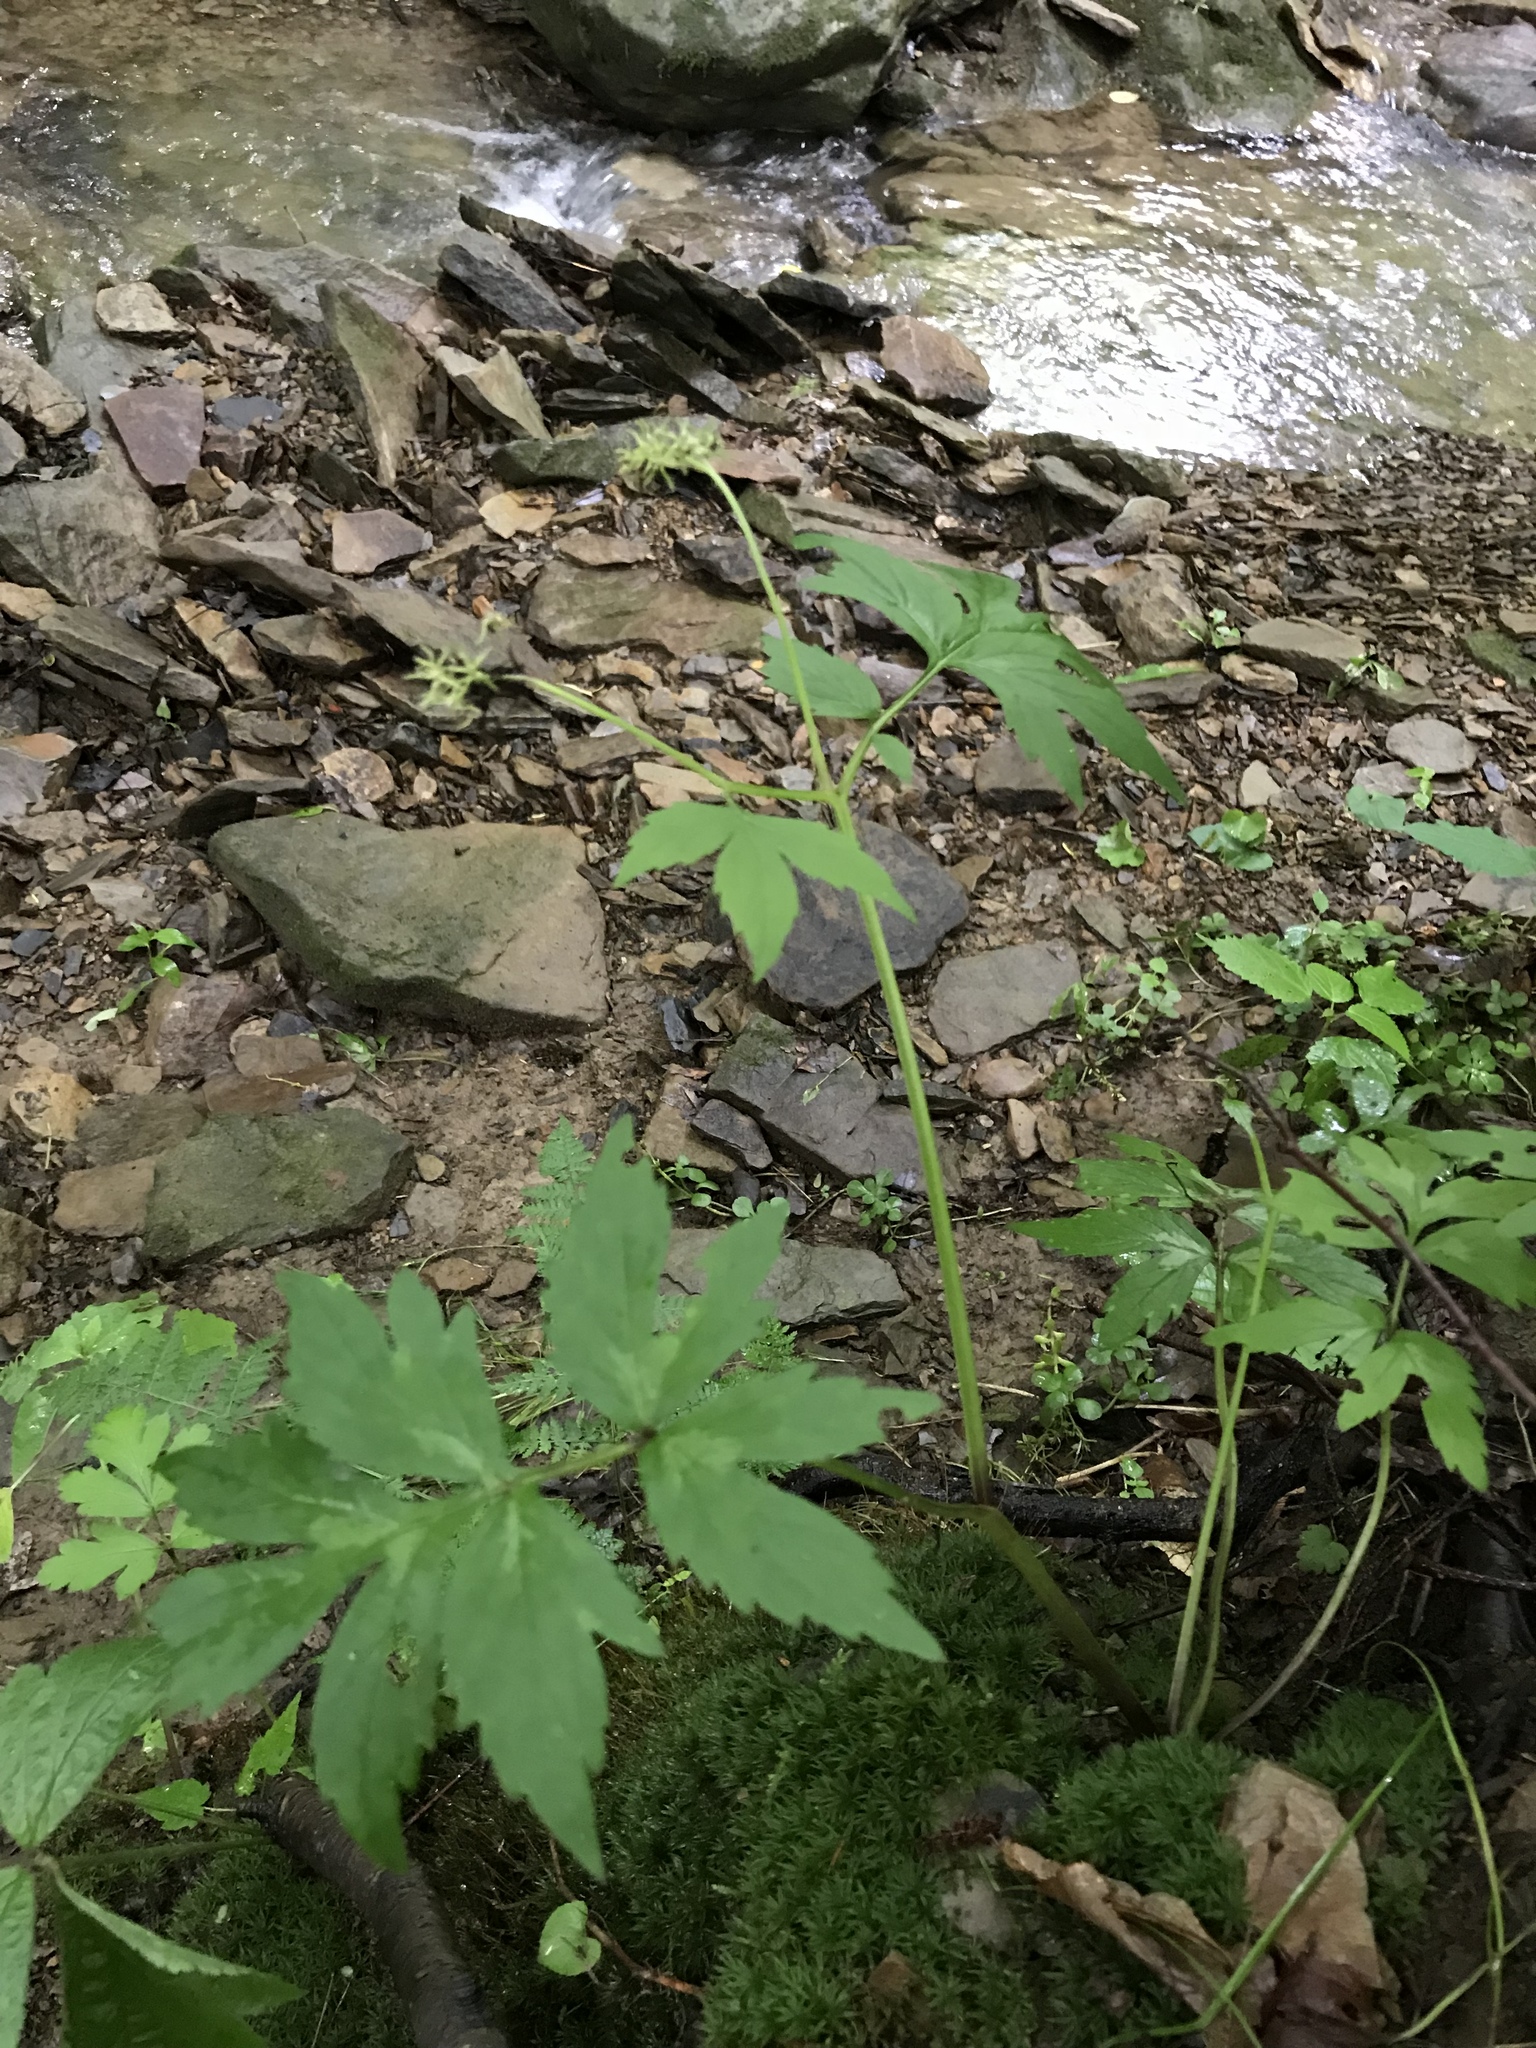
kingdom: Plantae
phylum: Tracheophyta
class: Magnoliopsida
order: Boraginales
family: Hydrophyllaceae
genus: Hydrophyllum
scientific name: Hydrophyllum virginianum
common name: Virginia waterleaf
